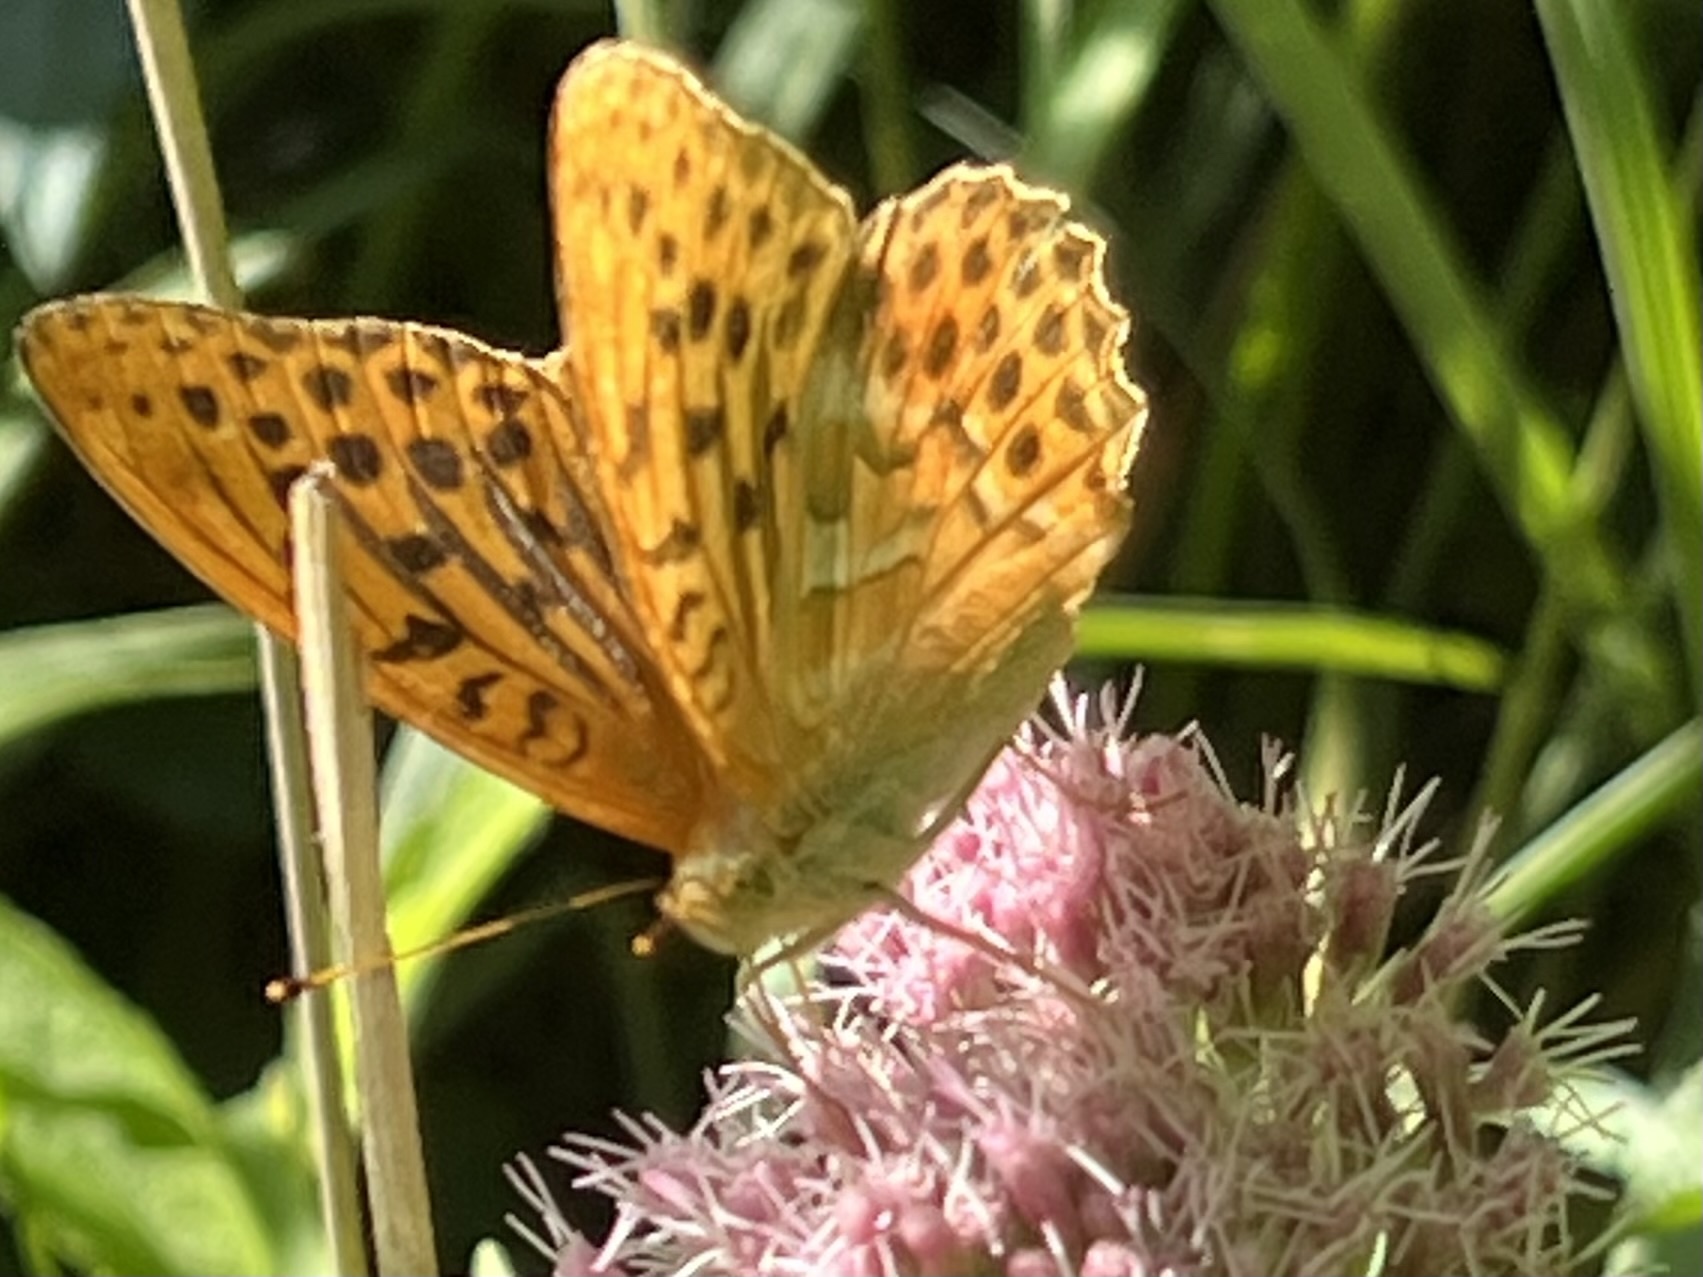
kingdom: Animalia
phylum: Arthropoda
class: Insecta
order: Lepidoptera
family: Nymphalidae
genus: Argynnis
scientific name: Argynnis paphia
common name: Silver-washed fritillary
